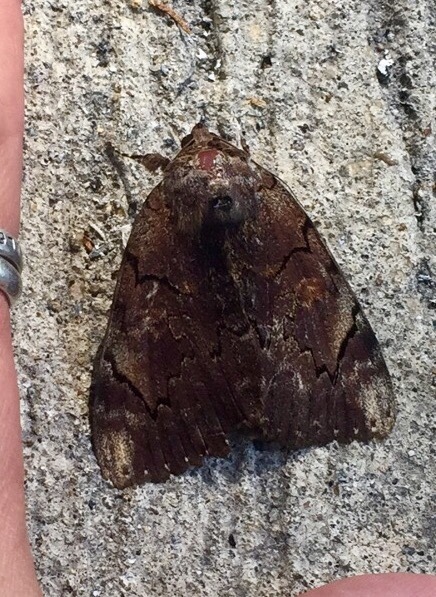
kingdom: Animalia
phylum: Arthropoda
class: Insecta
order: Lepidoptera
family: Erebidae
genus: Catocala
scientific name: Catocala carissima
